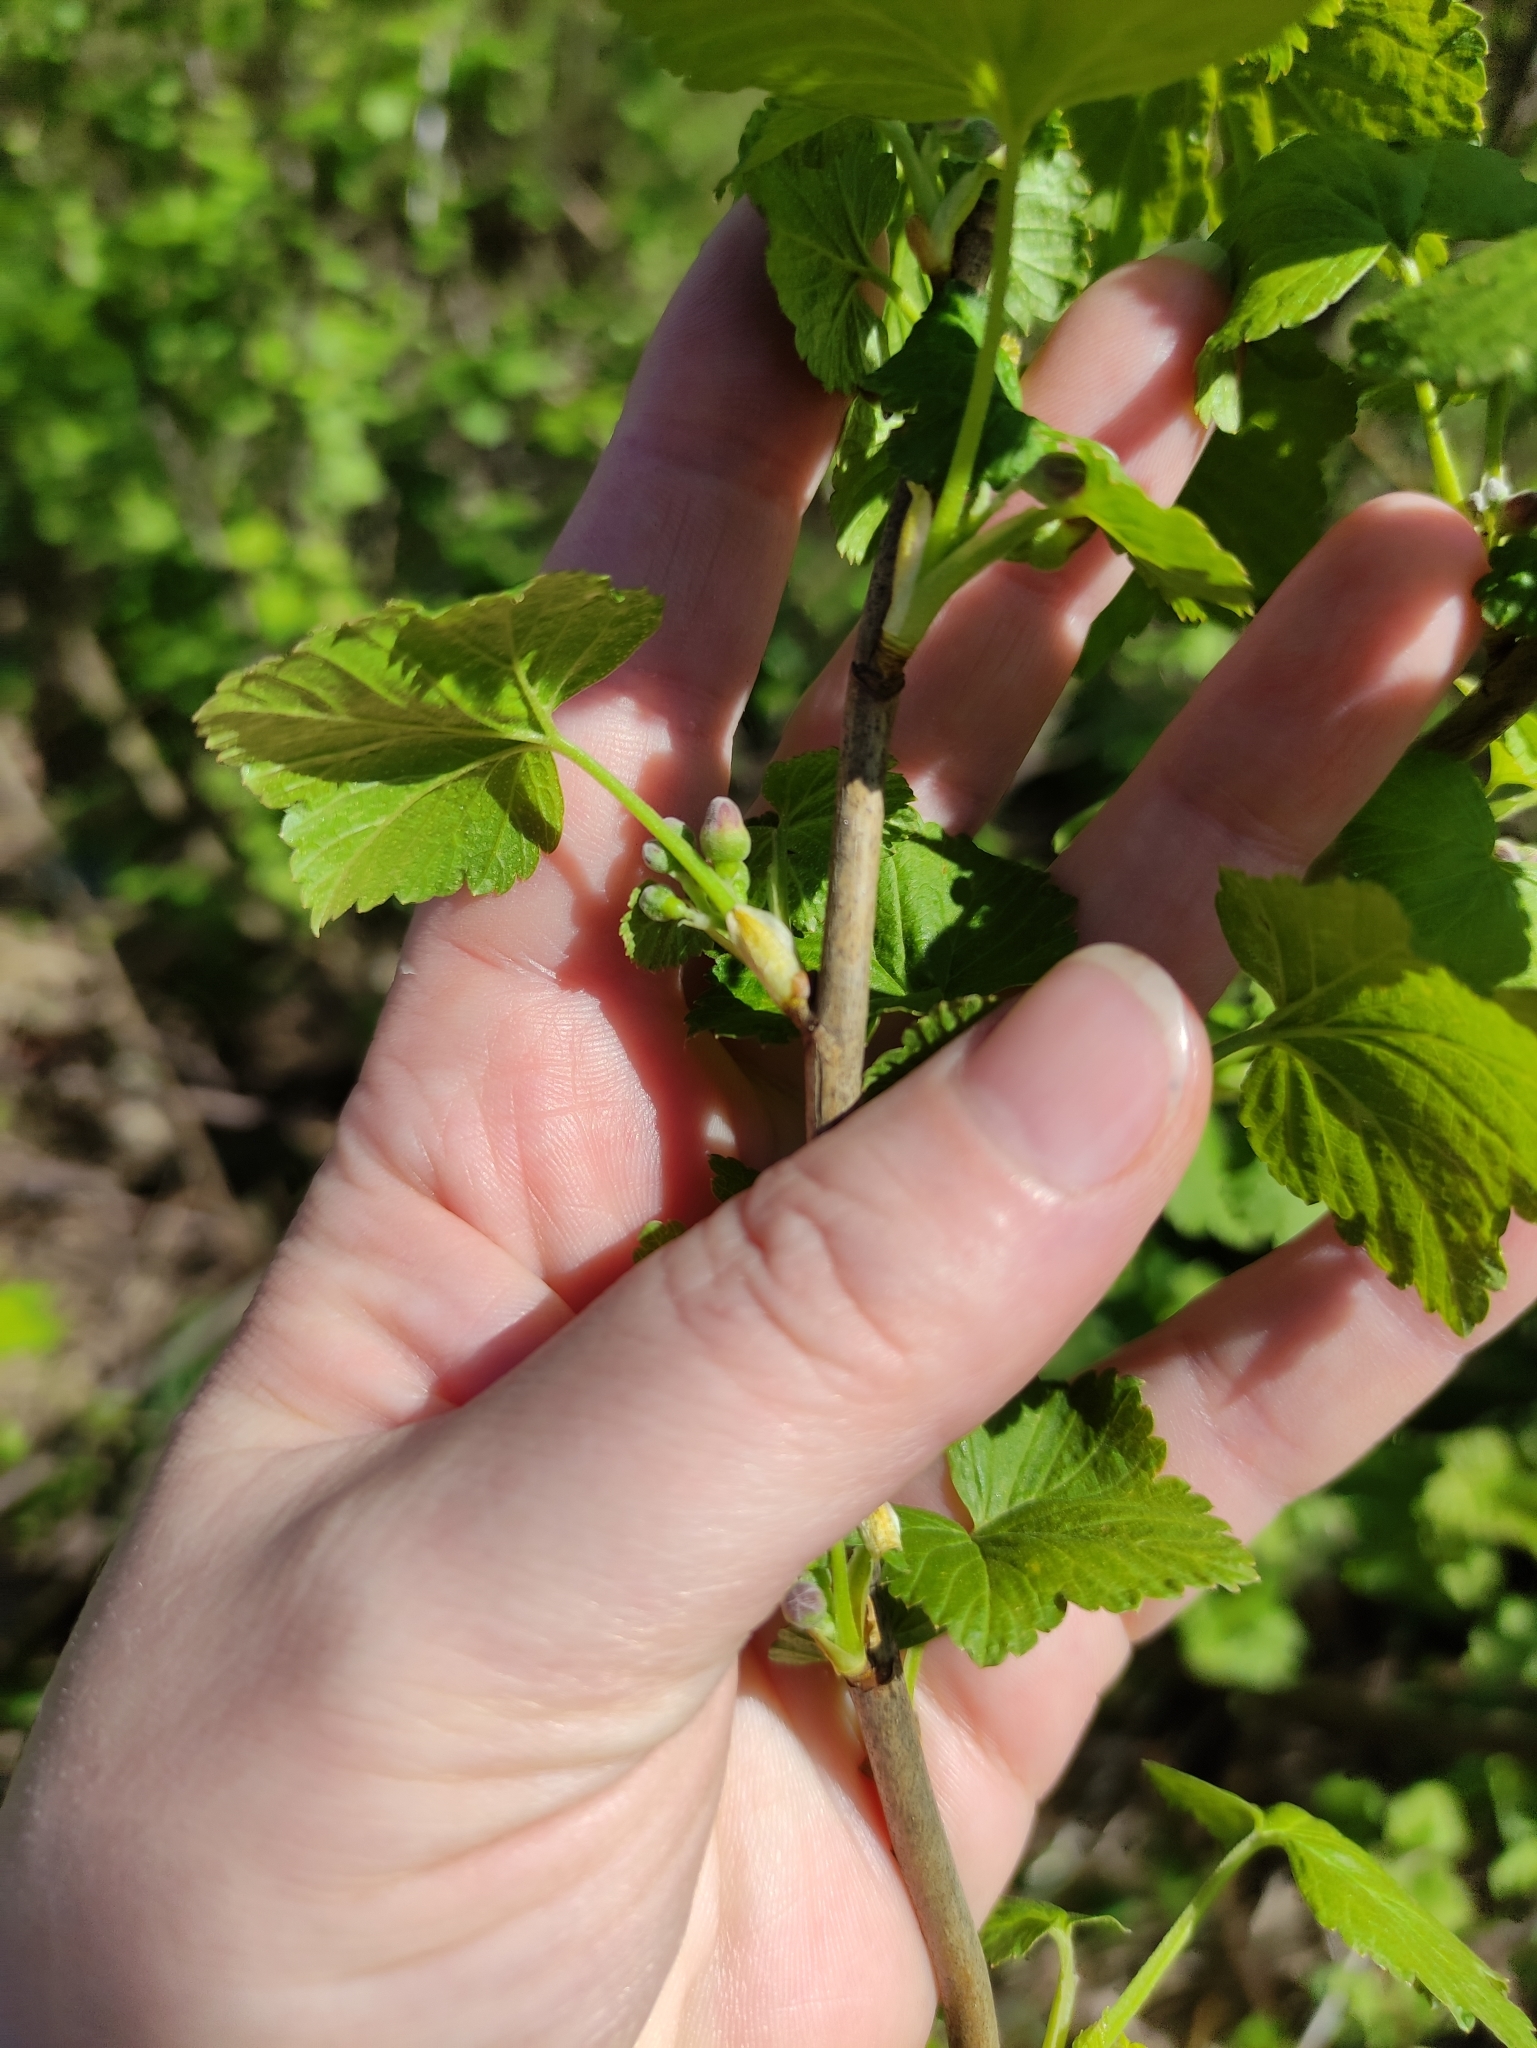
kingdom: Plantae
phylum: Tracheophyta
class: Magnoliopsida
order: Saxifragales
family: Grossulariaceae
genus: Ribes
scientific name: Ribes nigrum
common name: Black currant
